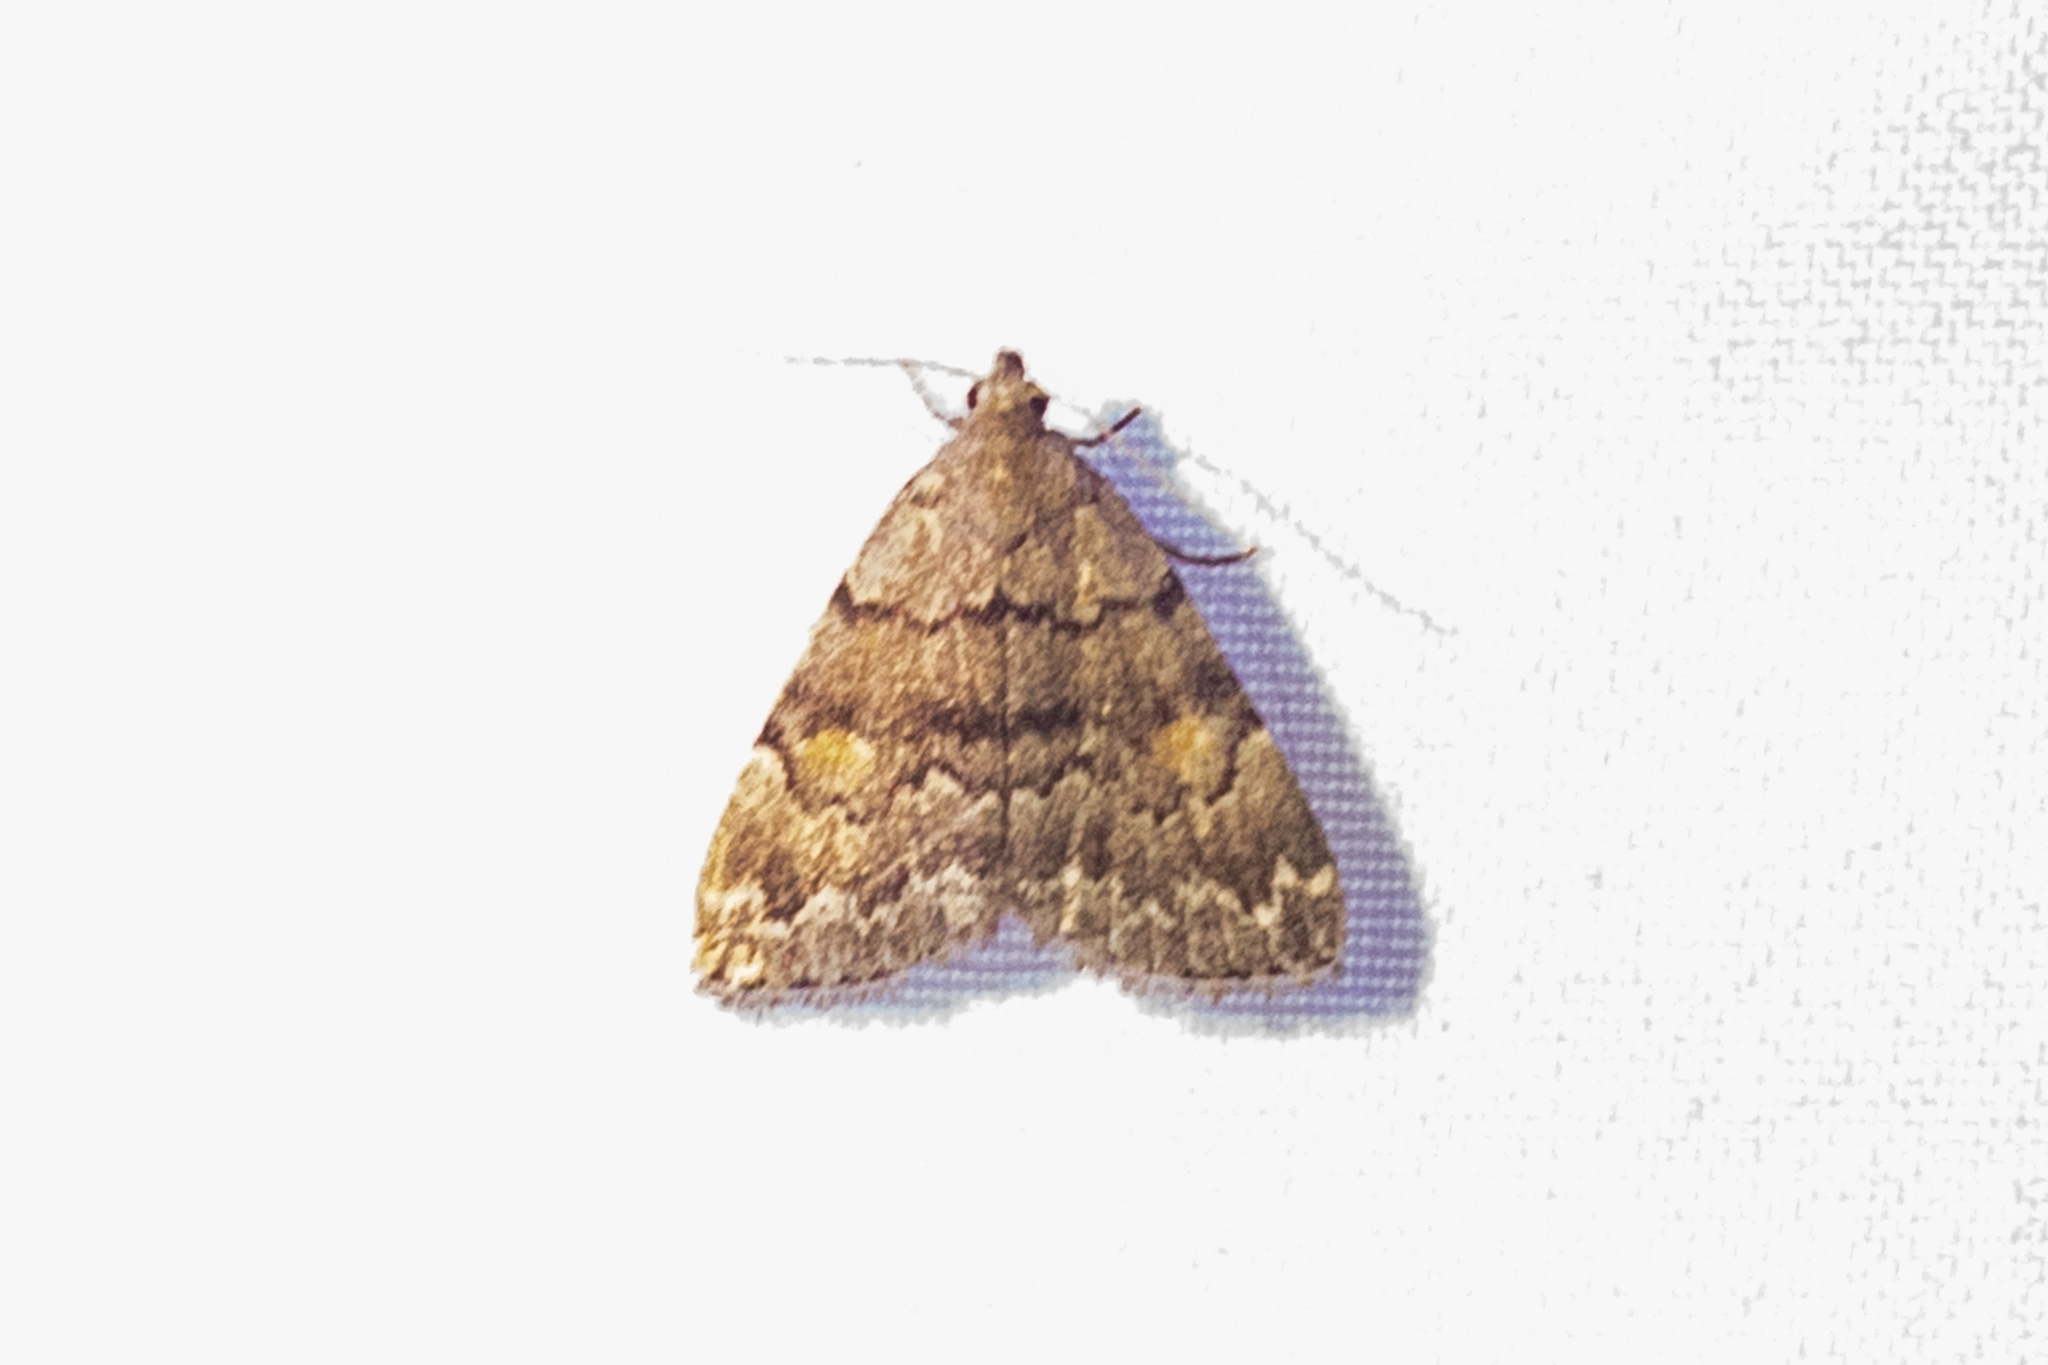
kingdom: Animalia
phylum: Arthropoda
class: Insecta
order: Lepidoptera
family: Erebidae
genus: Idia
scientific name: Idia aemula
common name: Common idia moth
